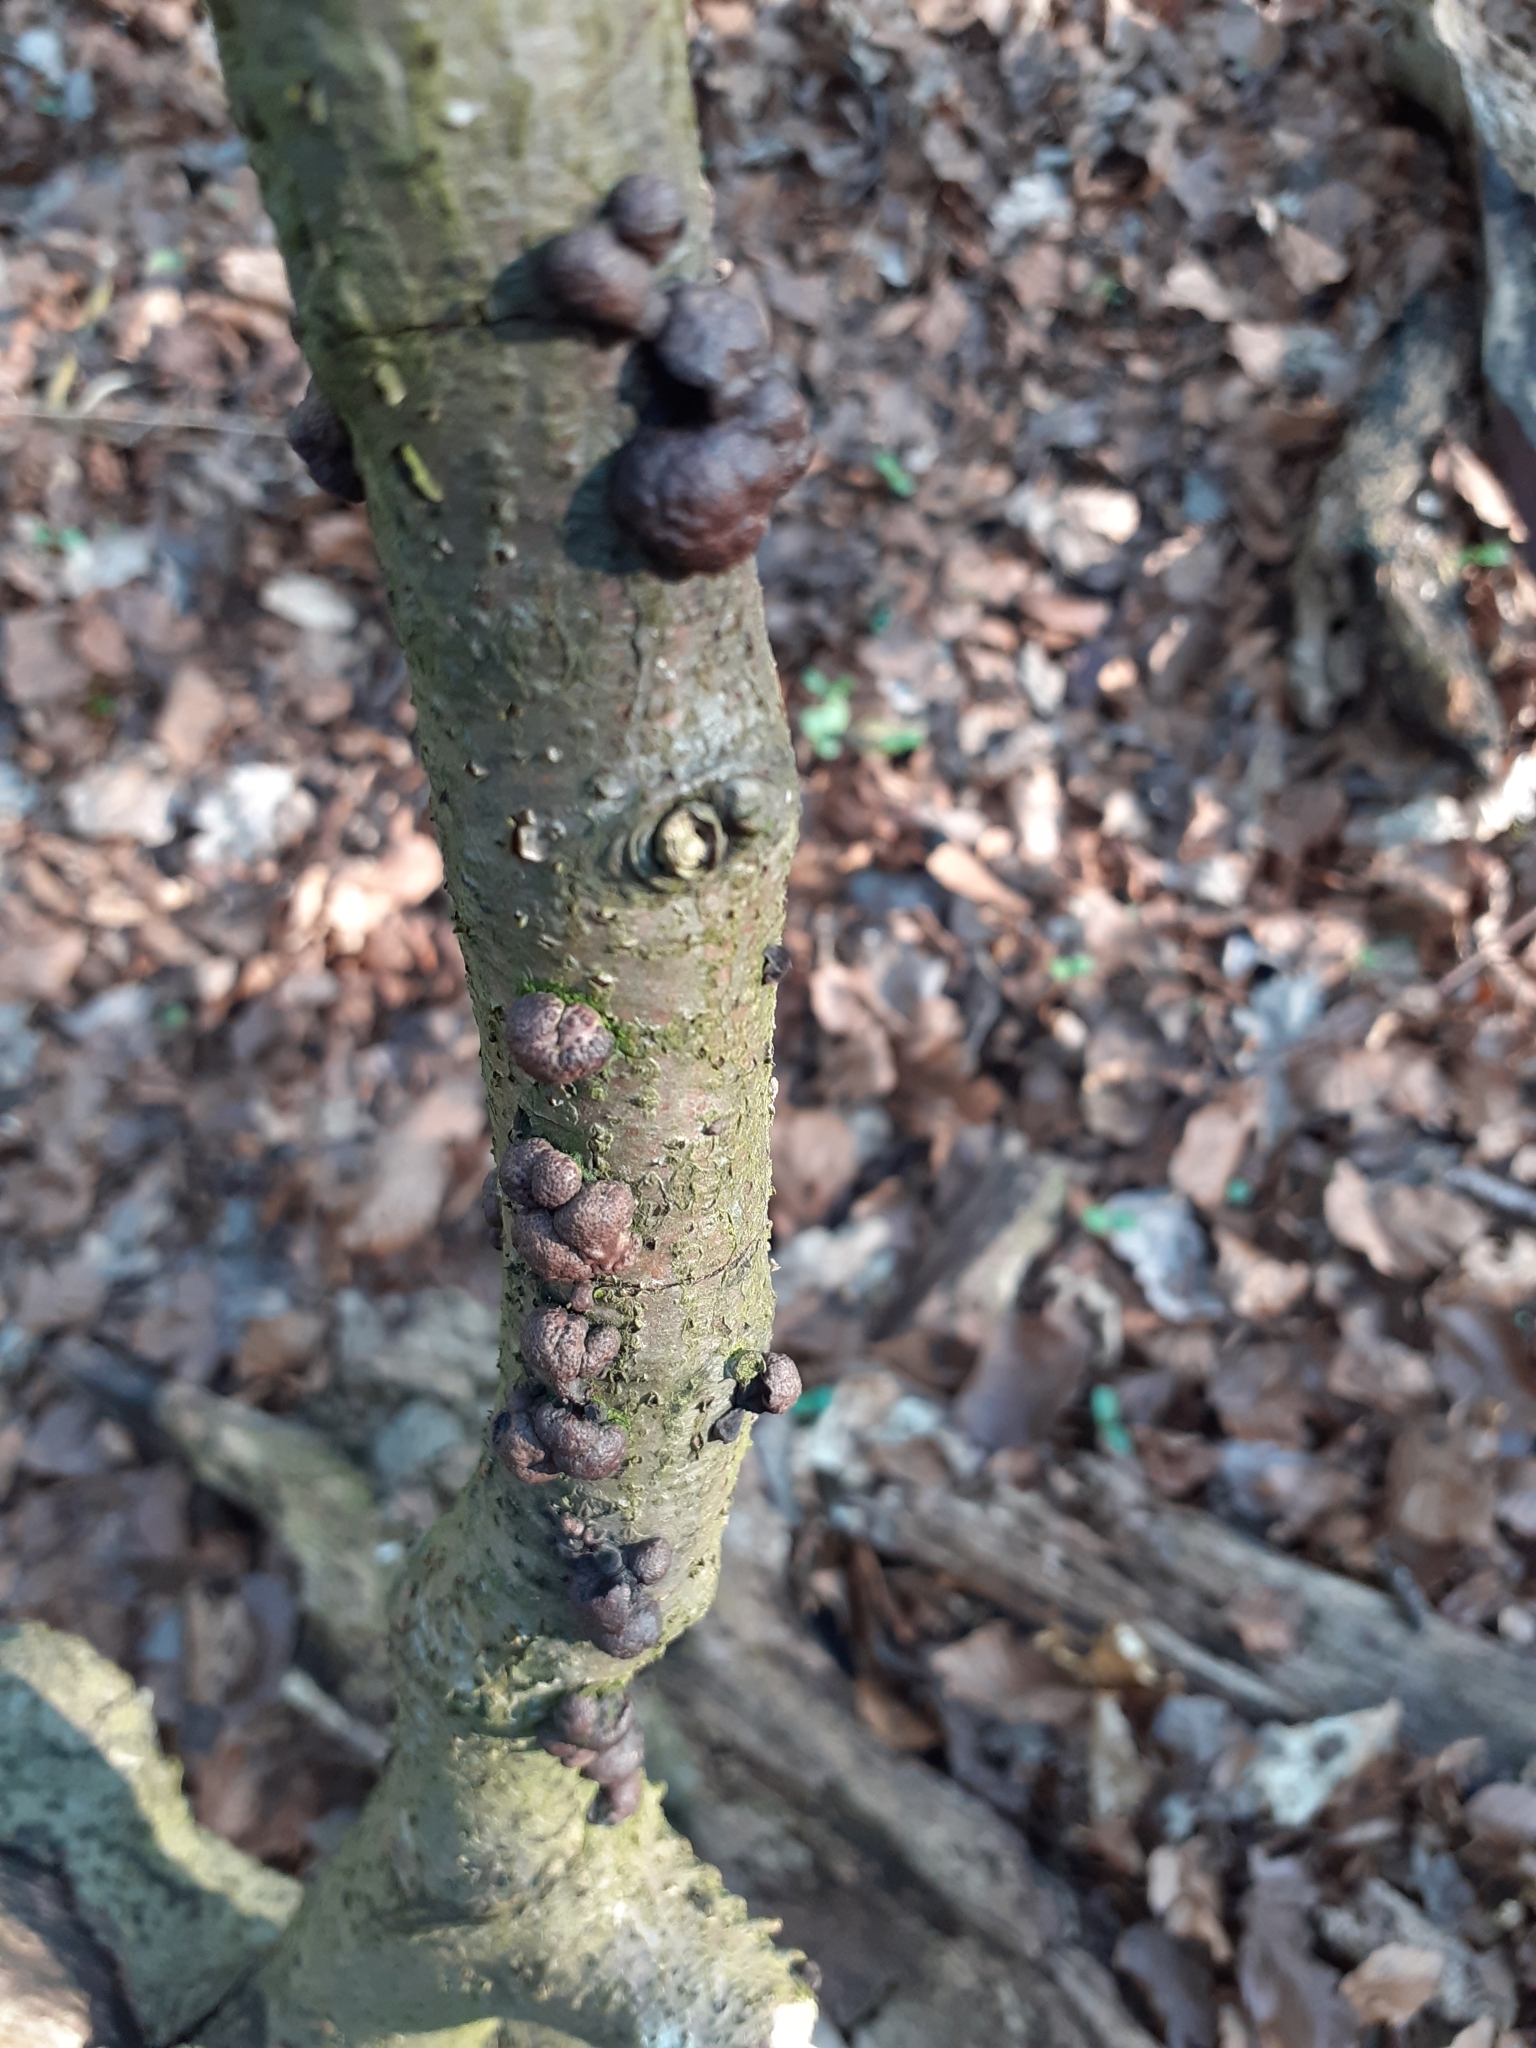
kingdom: Fungi
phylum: Ascomycota
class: Sordariomycetes
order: Xylariales
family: Hypoxylaceae
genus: Daldinia
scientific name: Daldinia concentrica
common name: Cramp balls
